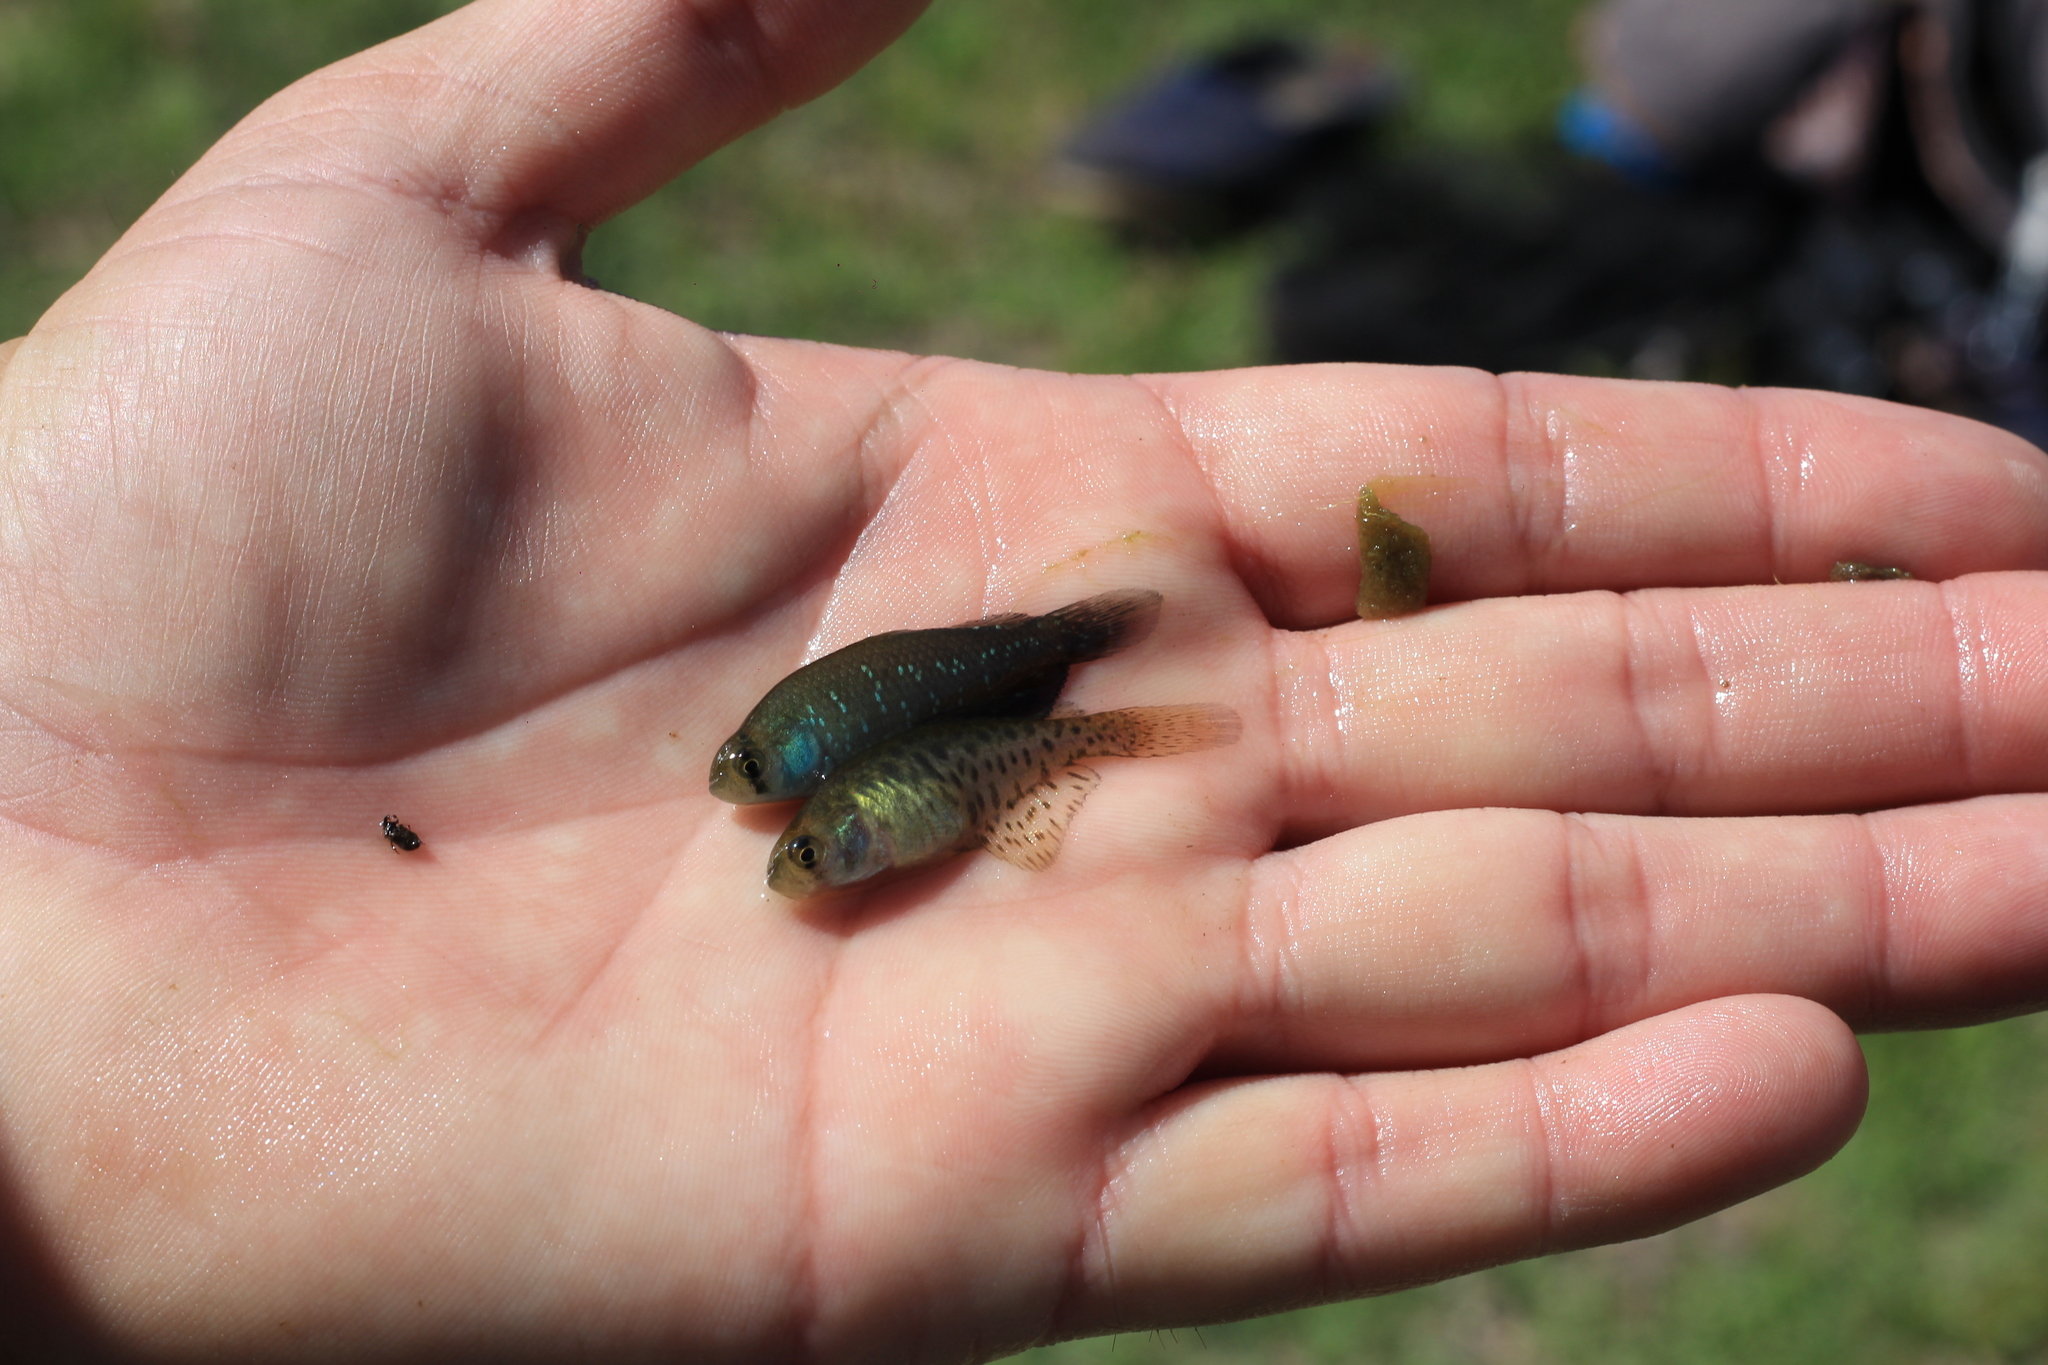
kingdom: Animalia
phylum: Chordata
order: Cyprinodontiformes
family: Rivulidae
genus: Austrolebias
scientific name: Austrolebias bellottii
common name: Argentine pearlfish
